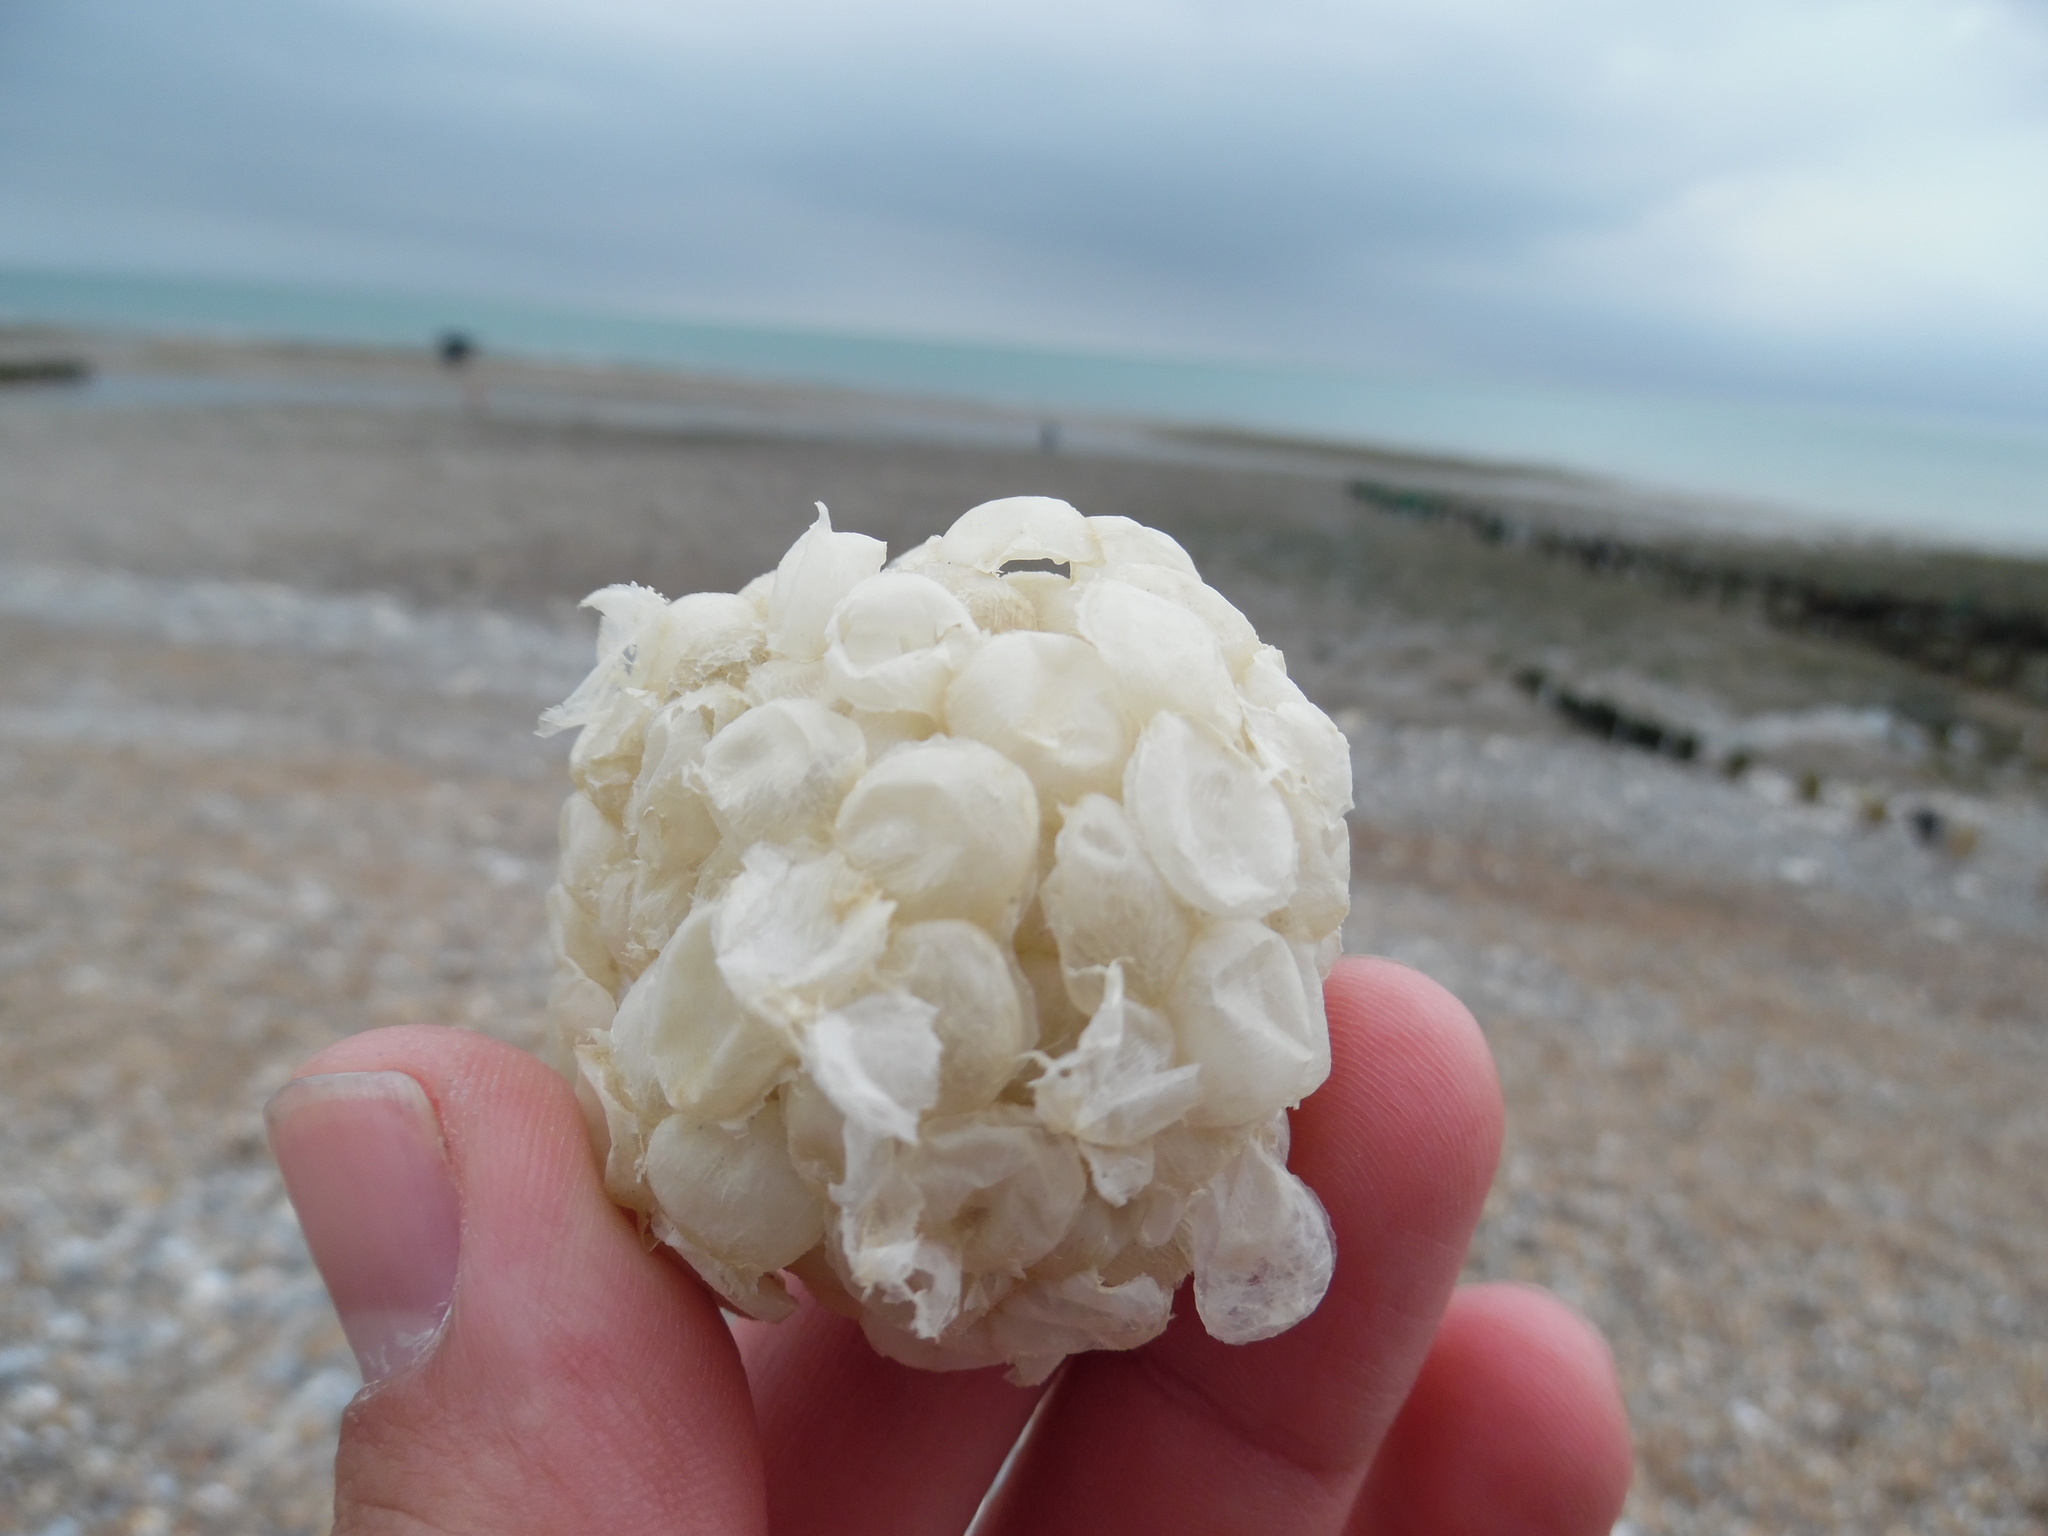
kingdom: Animalia
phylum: Mollusca
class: Gastropoda
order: Neogastropoda
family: Buccinidae
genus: Buccinum
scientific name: Buccinum undatum
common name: Common whelk
